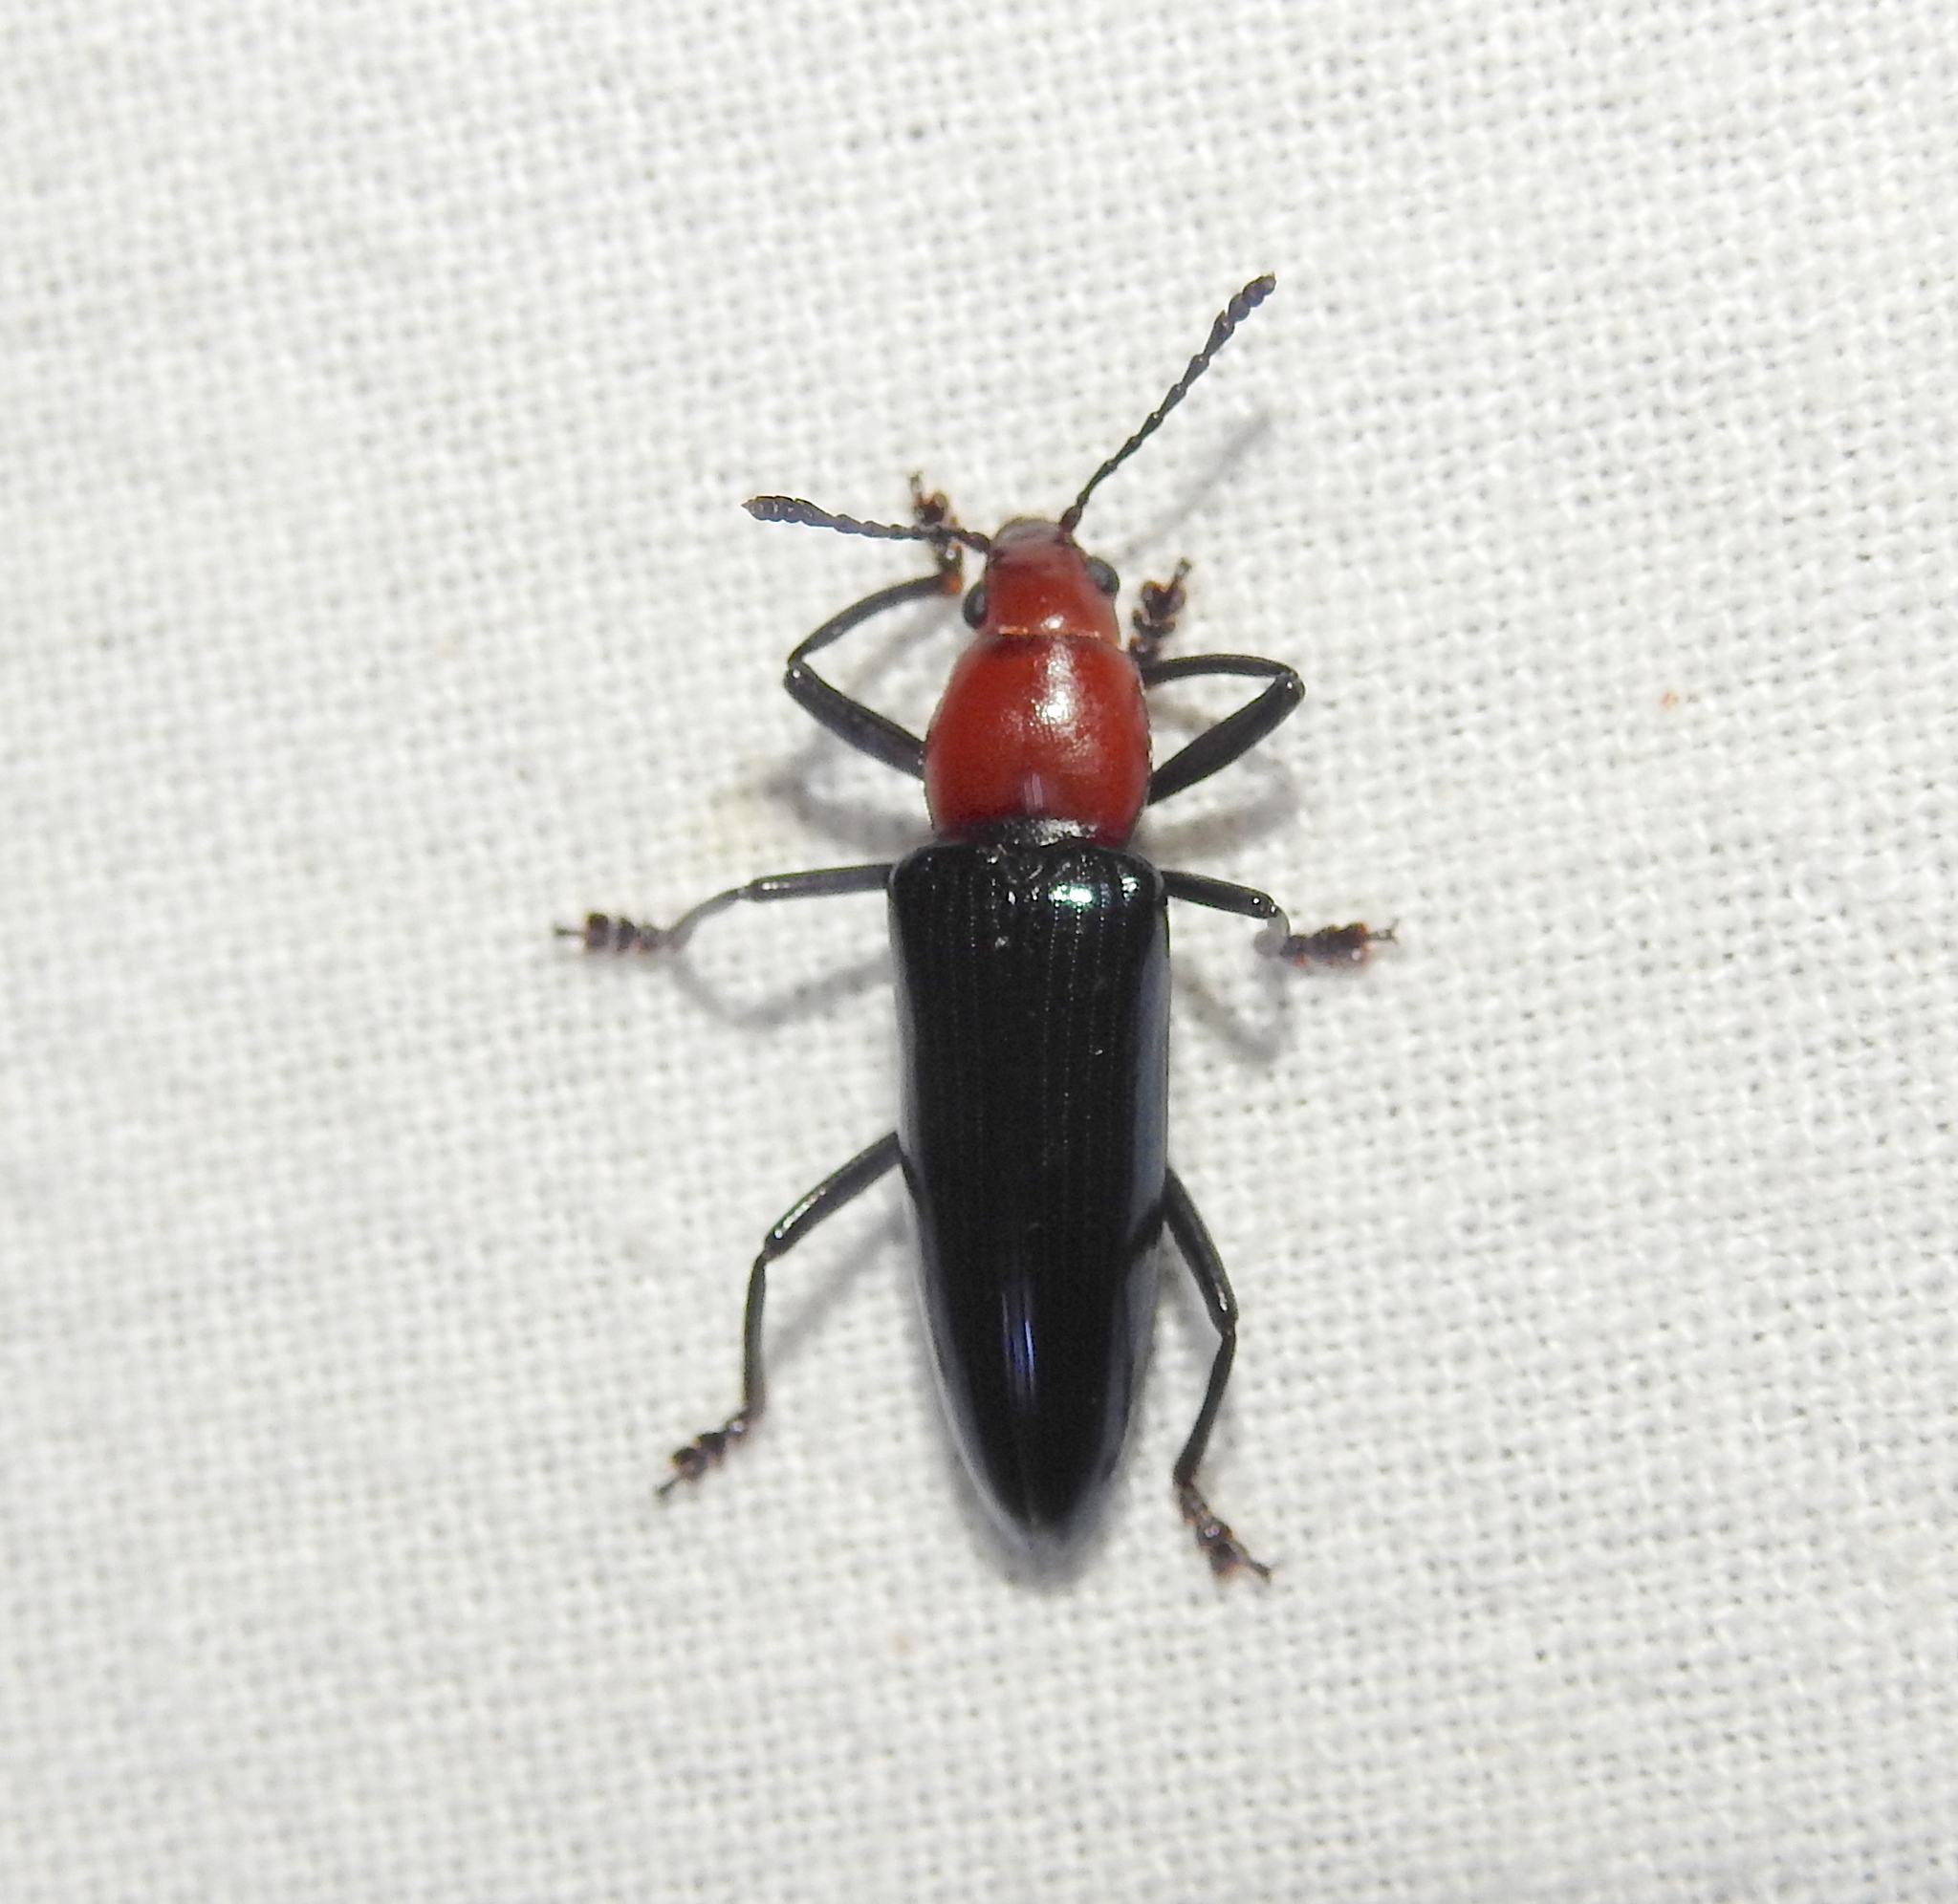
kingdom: Animalia
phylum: Arthropoda
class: Insecta
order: Coleoptera
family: Erotylidae
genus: Fatua
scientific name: Fatua
